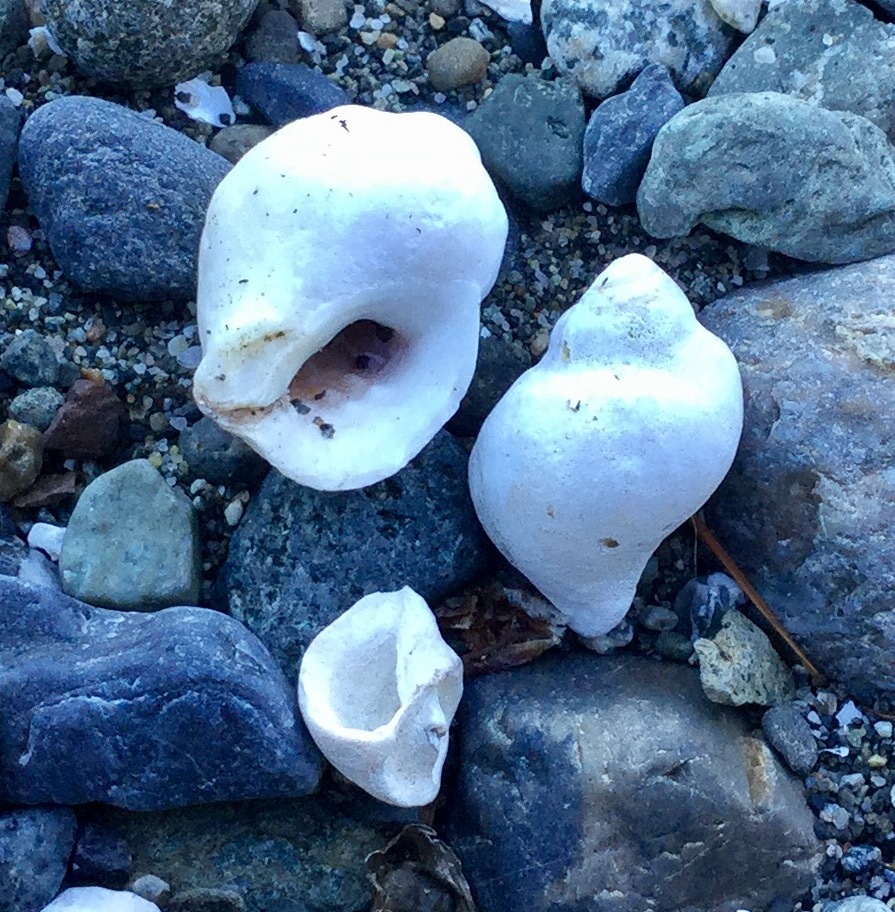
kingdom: Animalia
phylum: Mollusca
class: Gastropoda
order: Neogastropoda
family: Muricidae
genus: Nucella
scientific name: Nucella lamellosa
